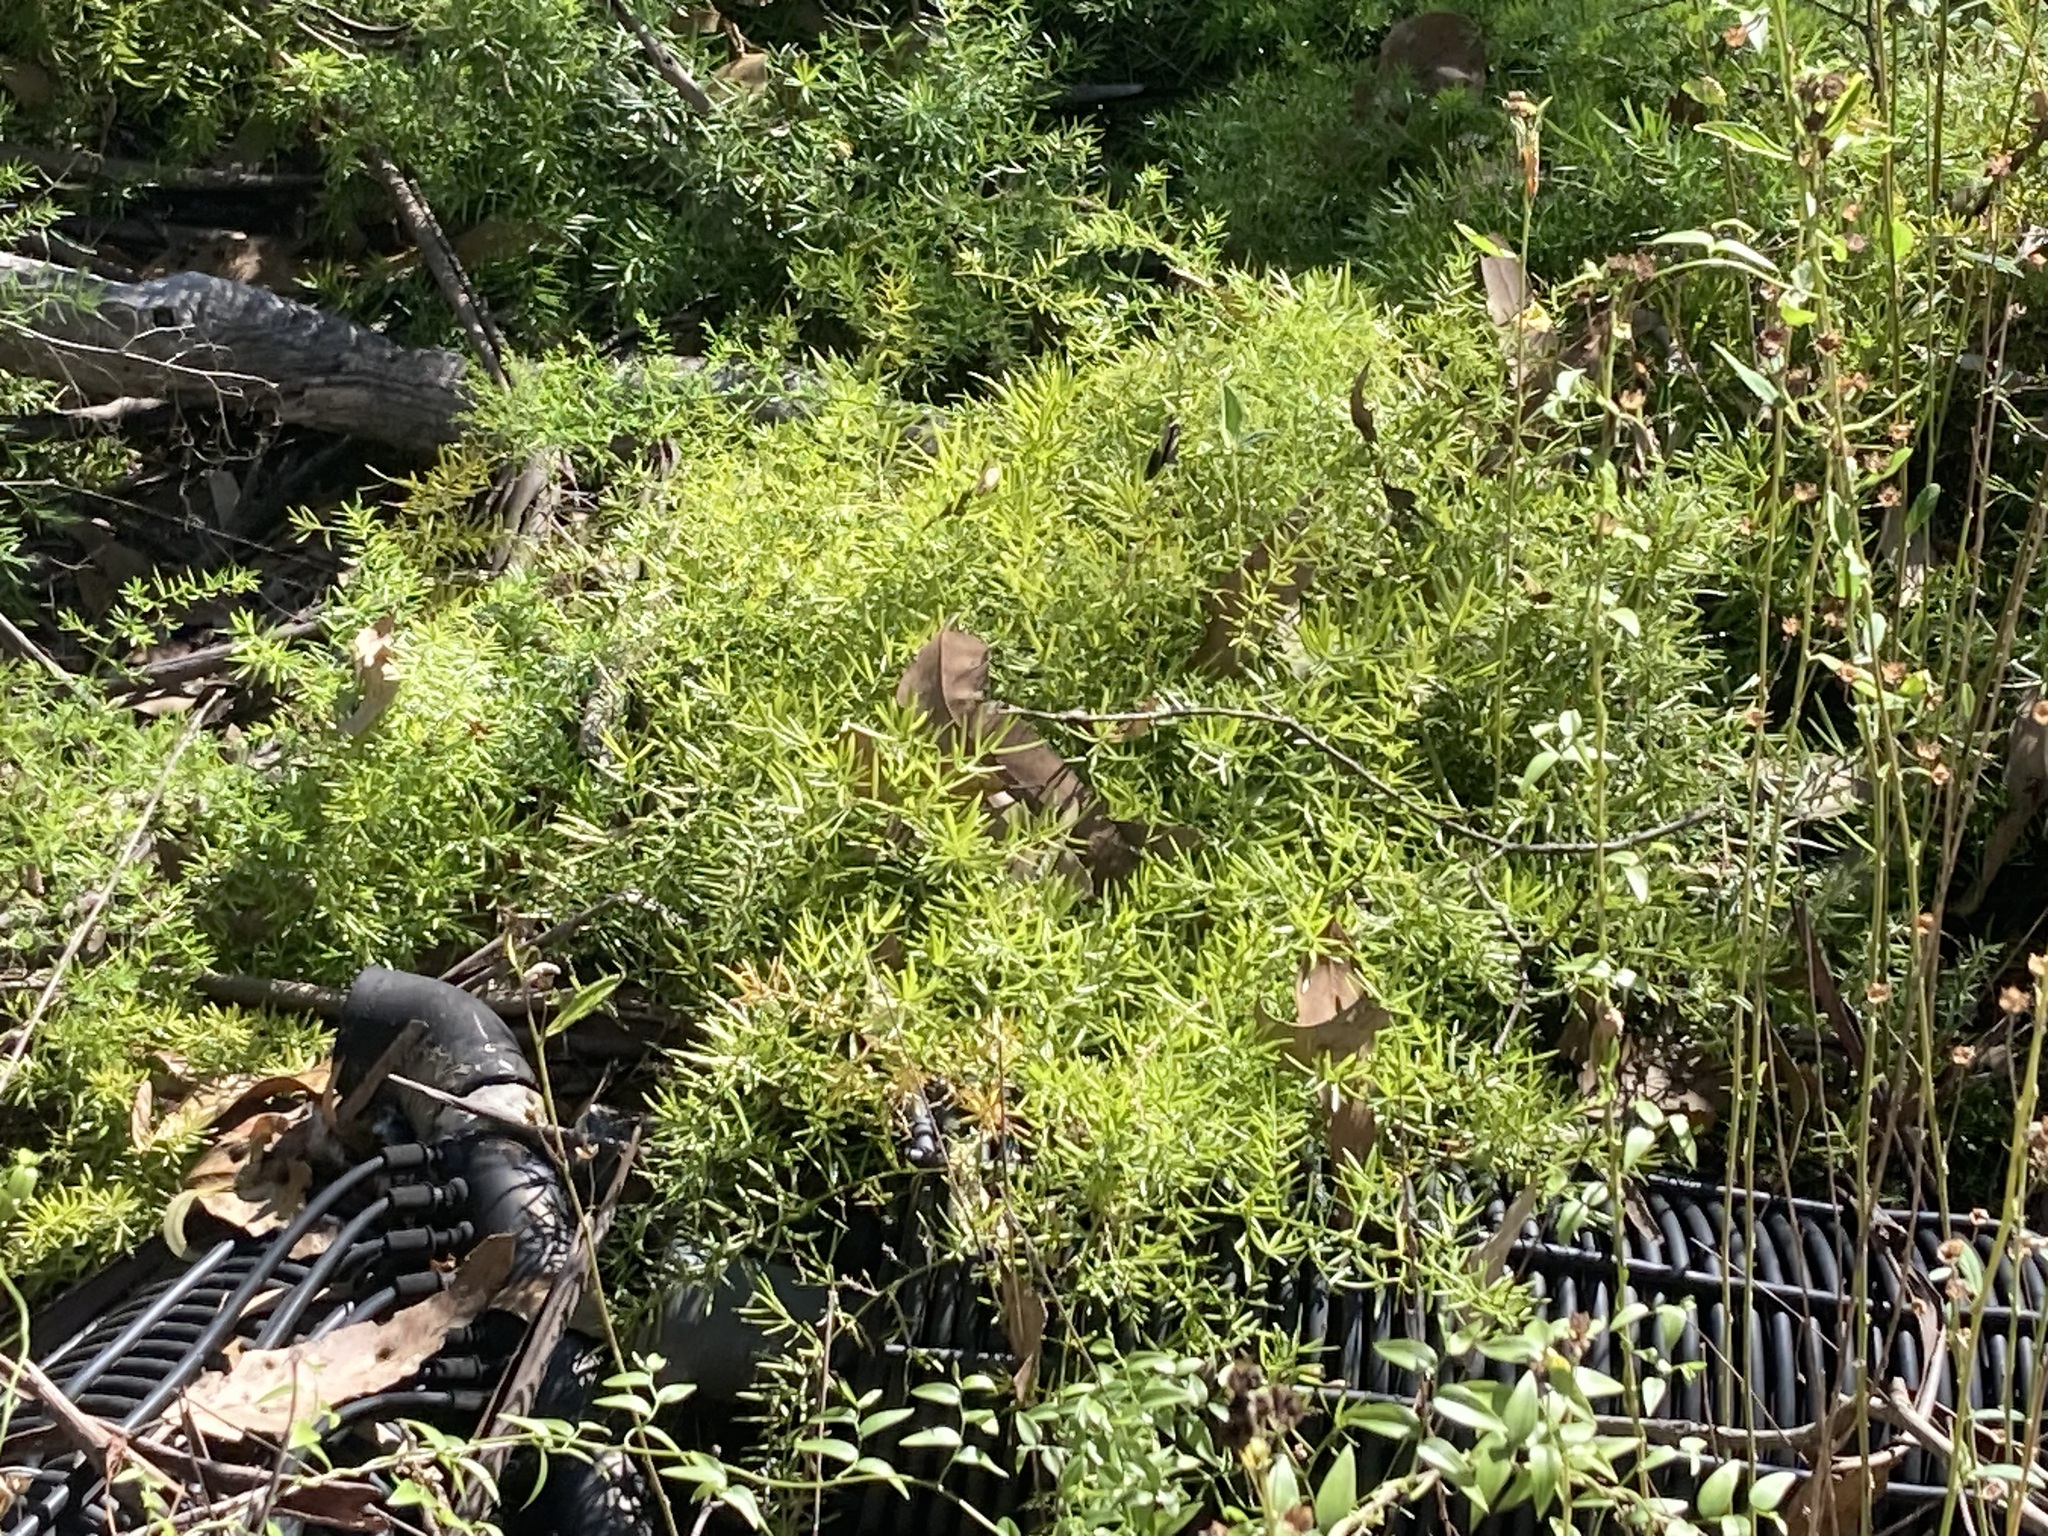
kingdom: Plantae
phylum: Tracheophyta
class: Liliopsida
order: Asparagales
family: Asparagaceae
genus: Asparagus
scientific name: Asparagus aethiopicus
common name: Sprenger's asparagus fern
